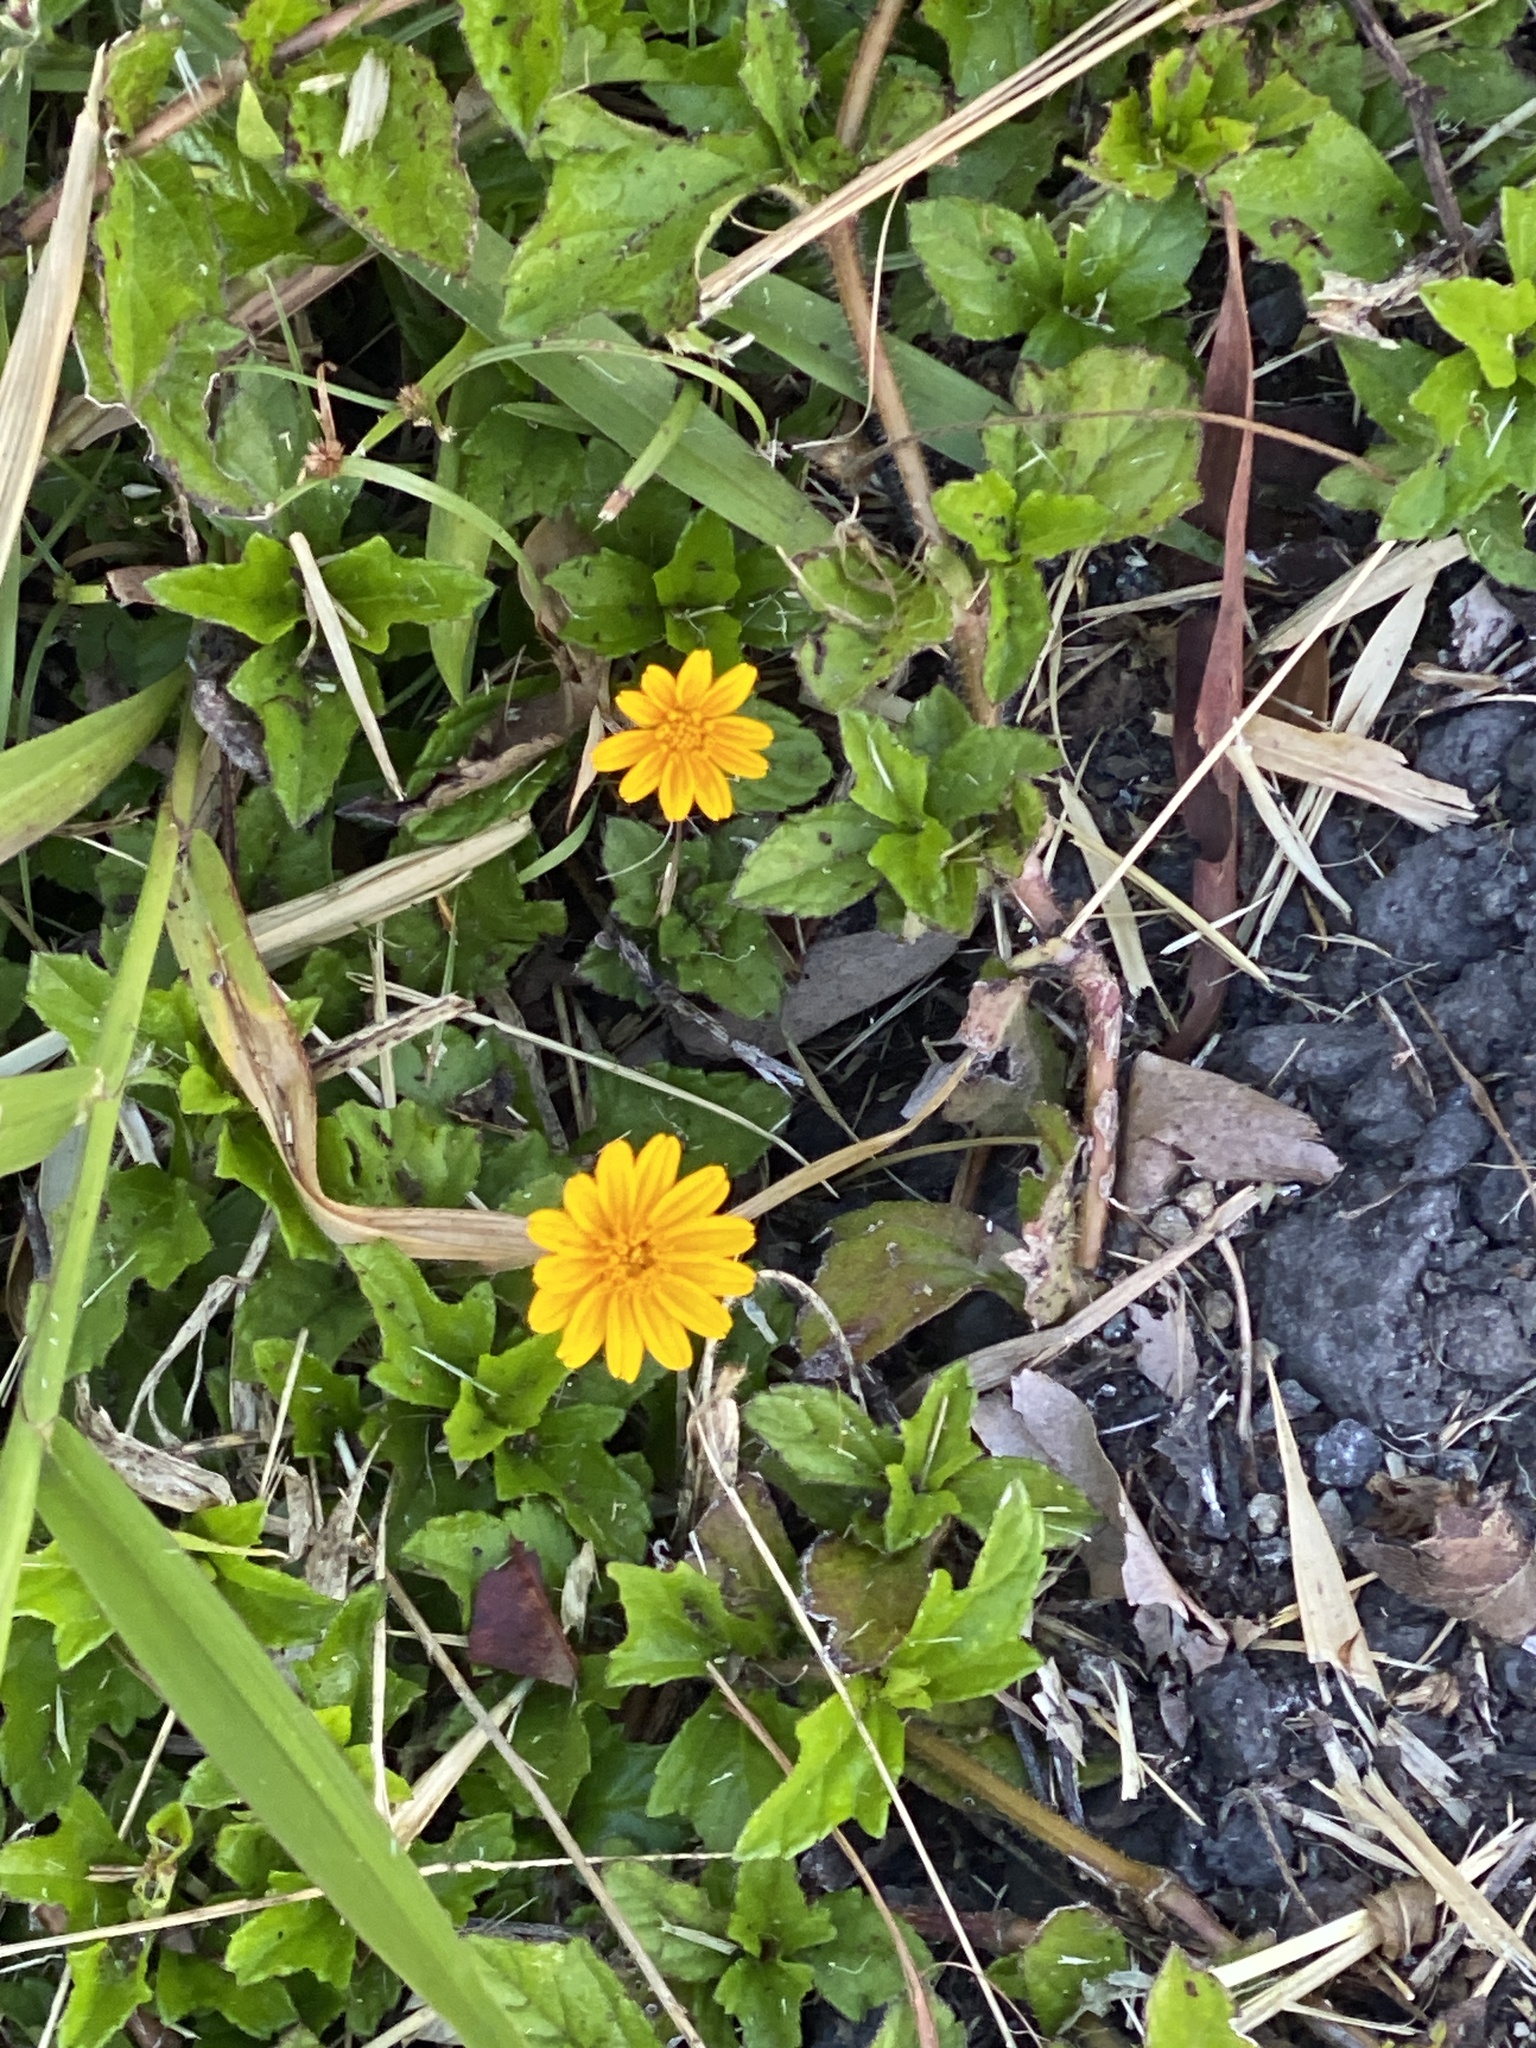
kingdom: Plantae
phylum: Tracheophyta
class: Magnoliopsida
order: Asterales
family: Asteraceae
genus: Sphagneticola
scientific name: Sphagneticola trilobata
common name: Bay biscayne creeping-oxeye
